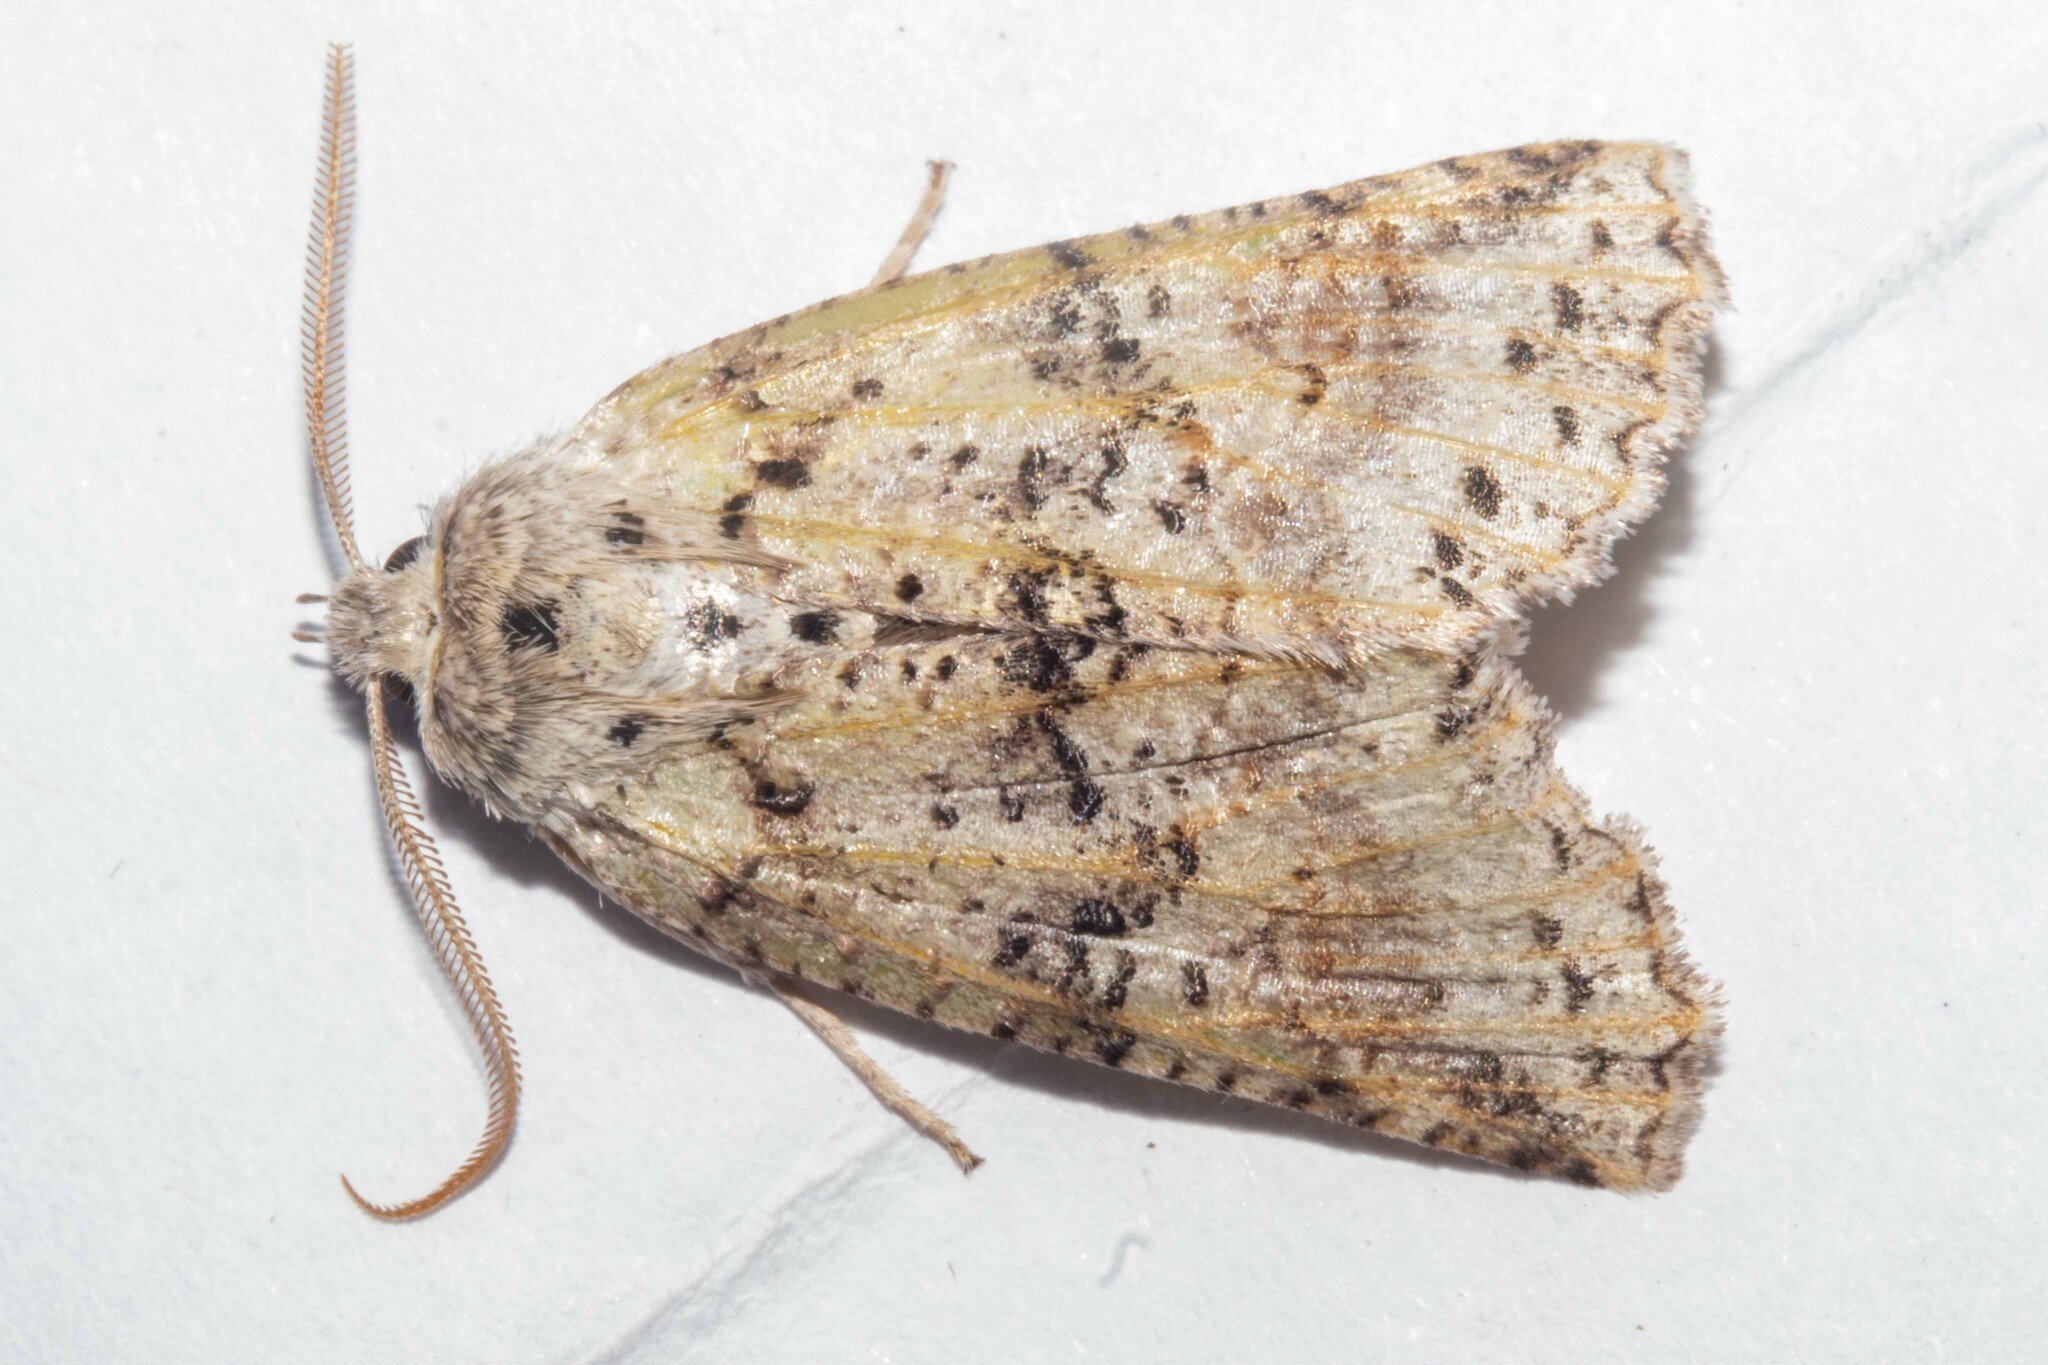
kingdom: Animalia
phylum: Arthropoda
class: Insecta
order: Lepidoptera
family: Geometridae
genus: Declana
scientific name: Declana floccosa
